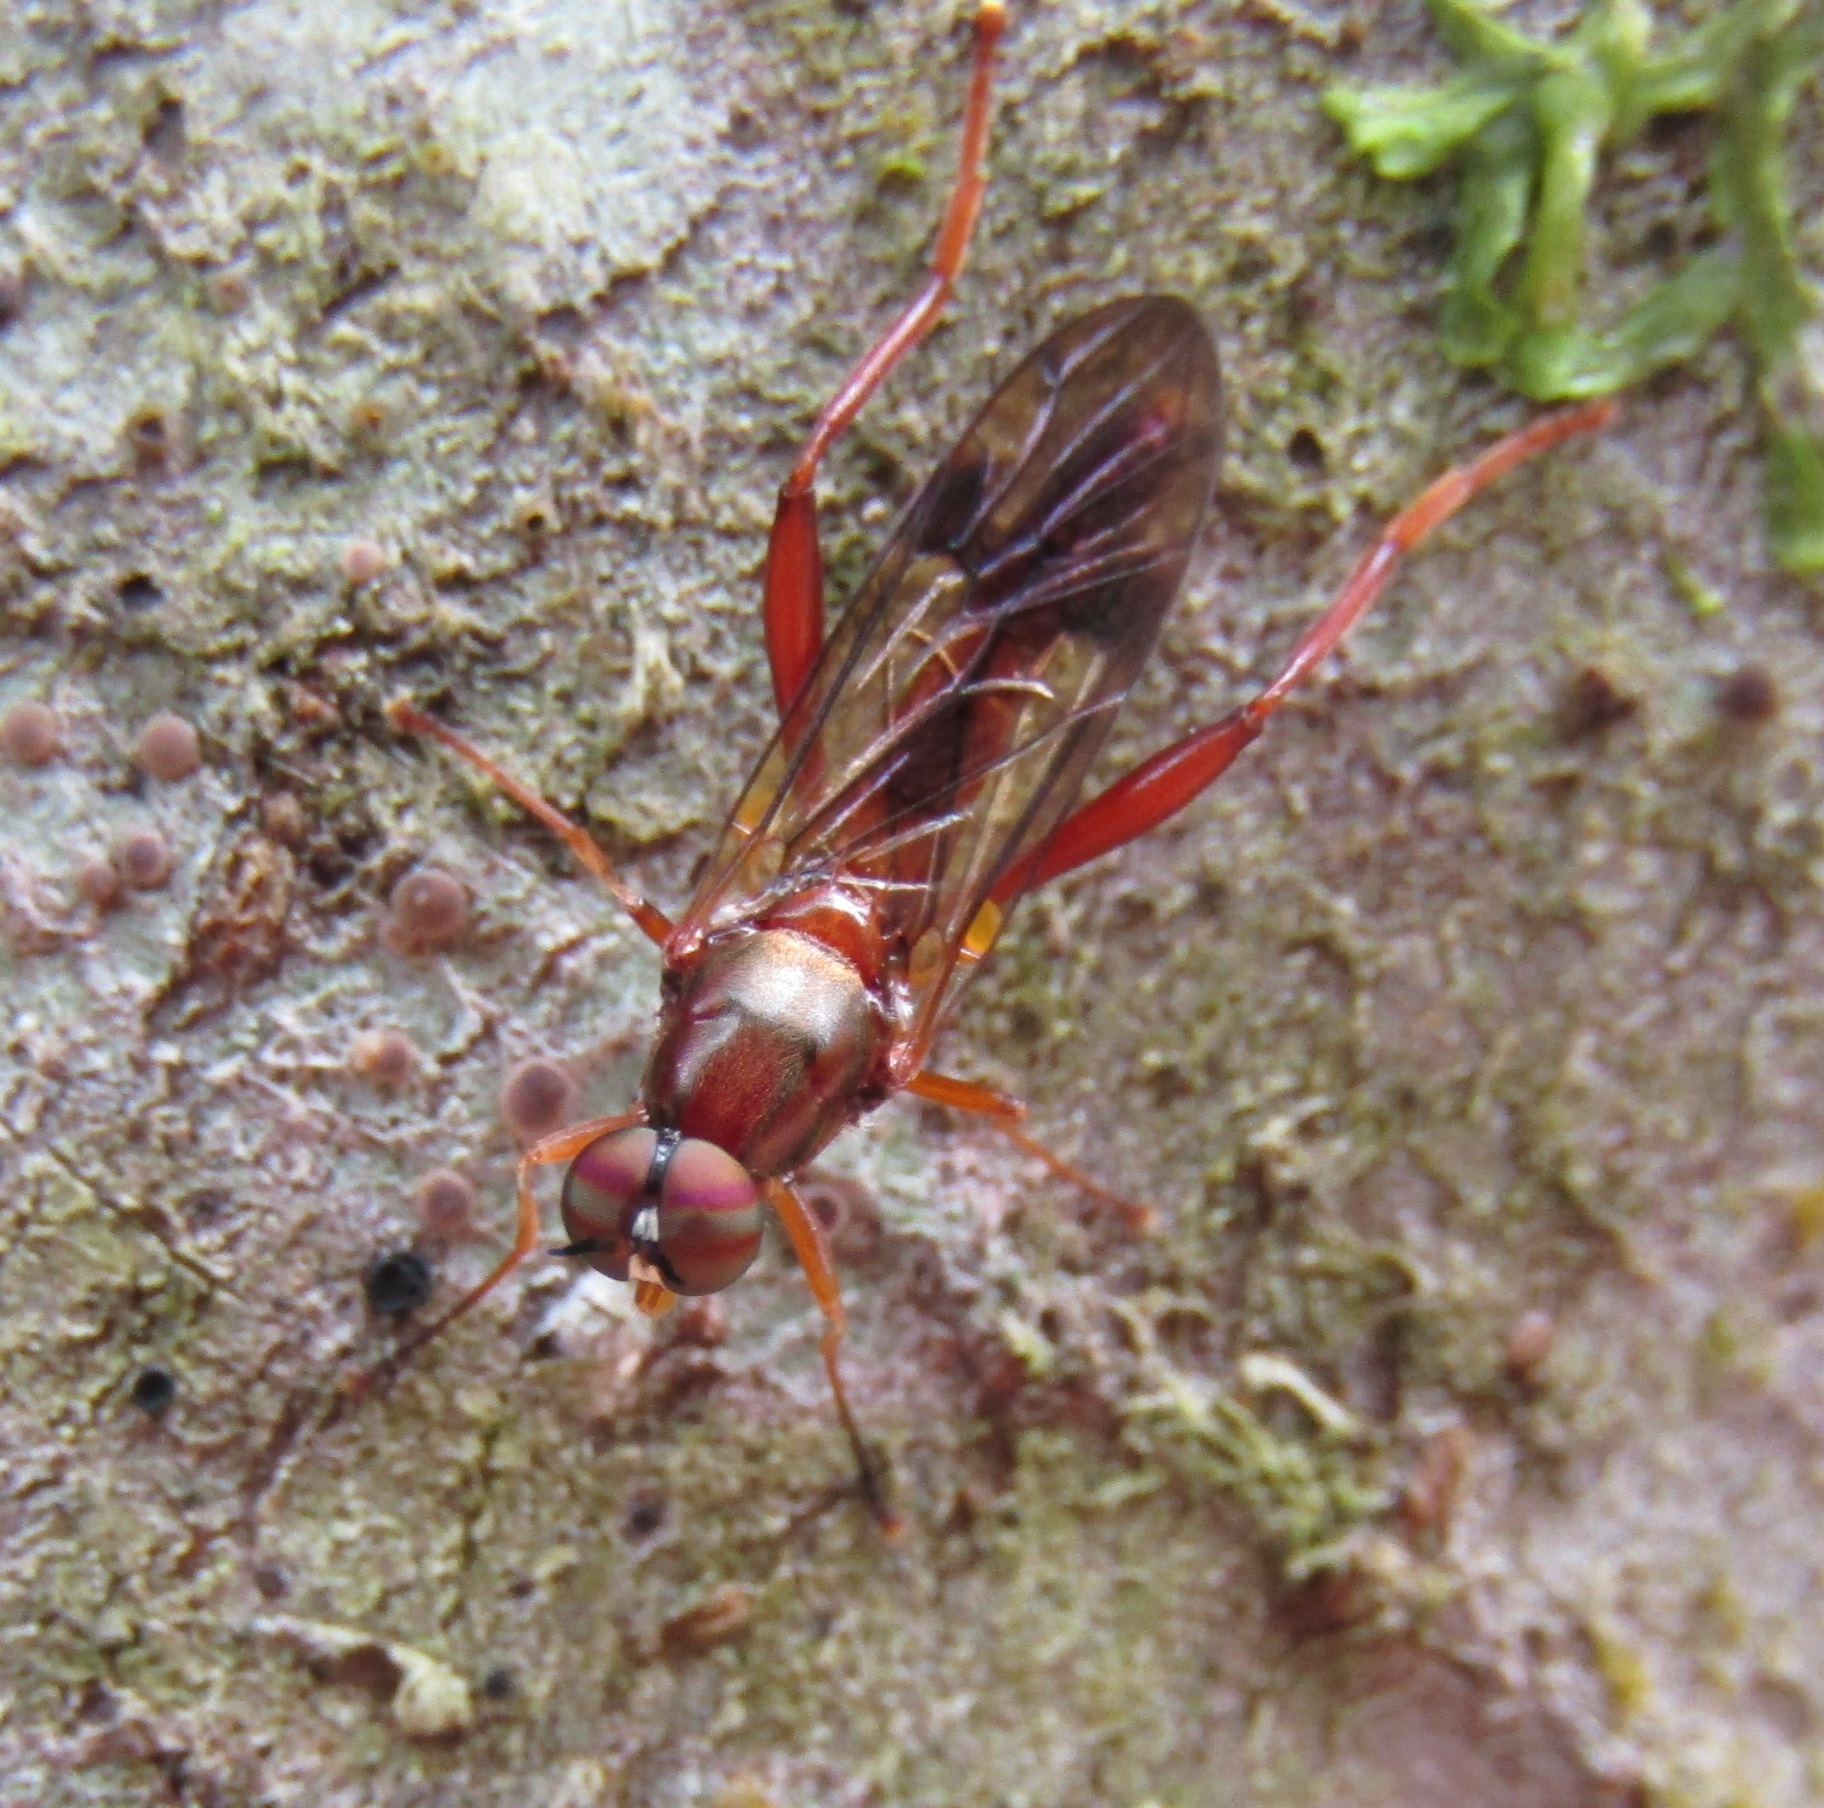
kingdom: Animalia
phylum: Arthropoda
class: Insecta
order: Diptera
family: Stratiomyidae
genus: Benhamyia
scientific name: Benhamyia straznitzkii
